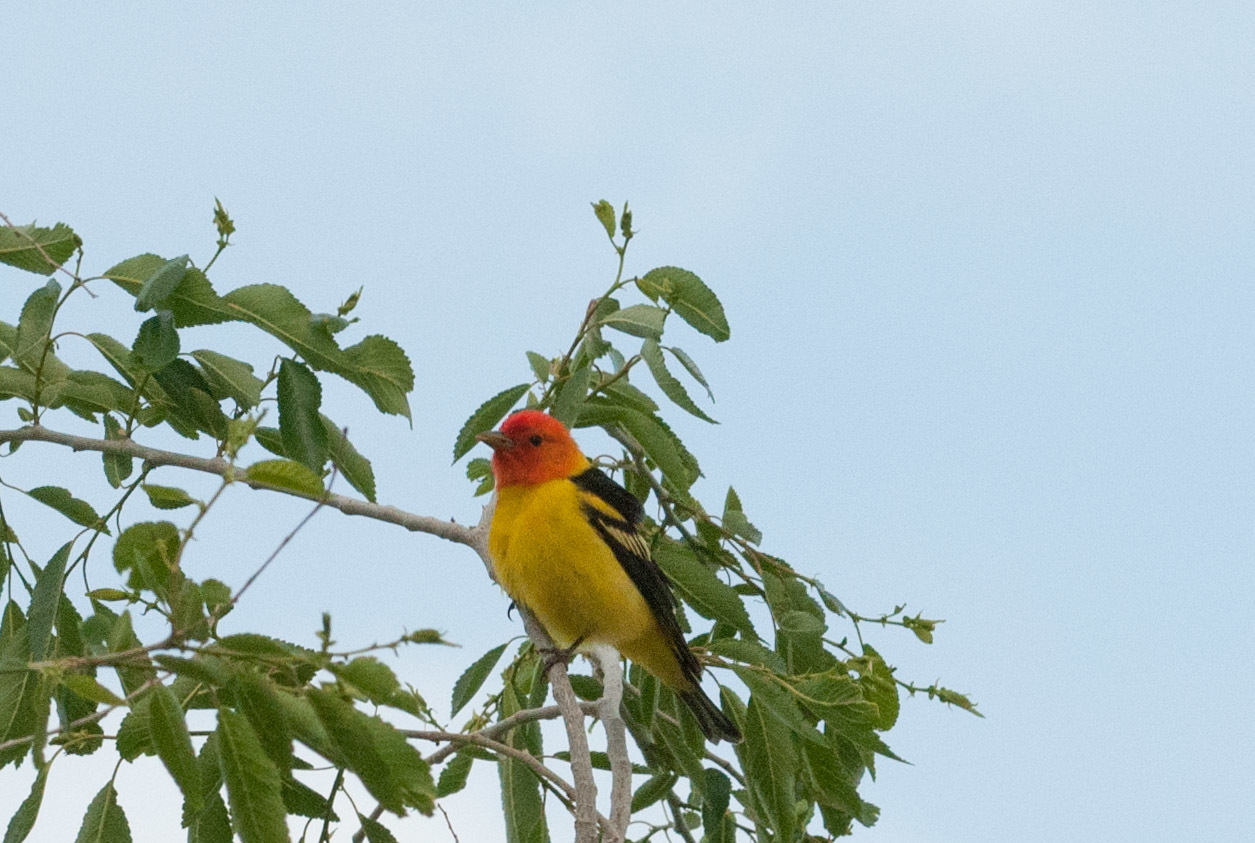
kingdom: Animalia
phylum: Chordata
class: Aves
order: Passeriformes
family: Cardinalidae
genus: Piranga
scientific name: Piranga ludoviciana
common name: Western tanager
